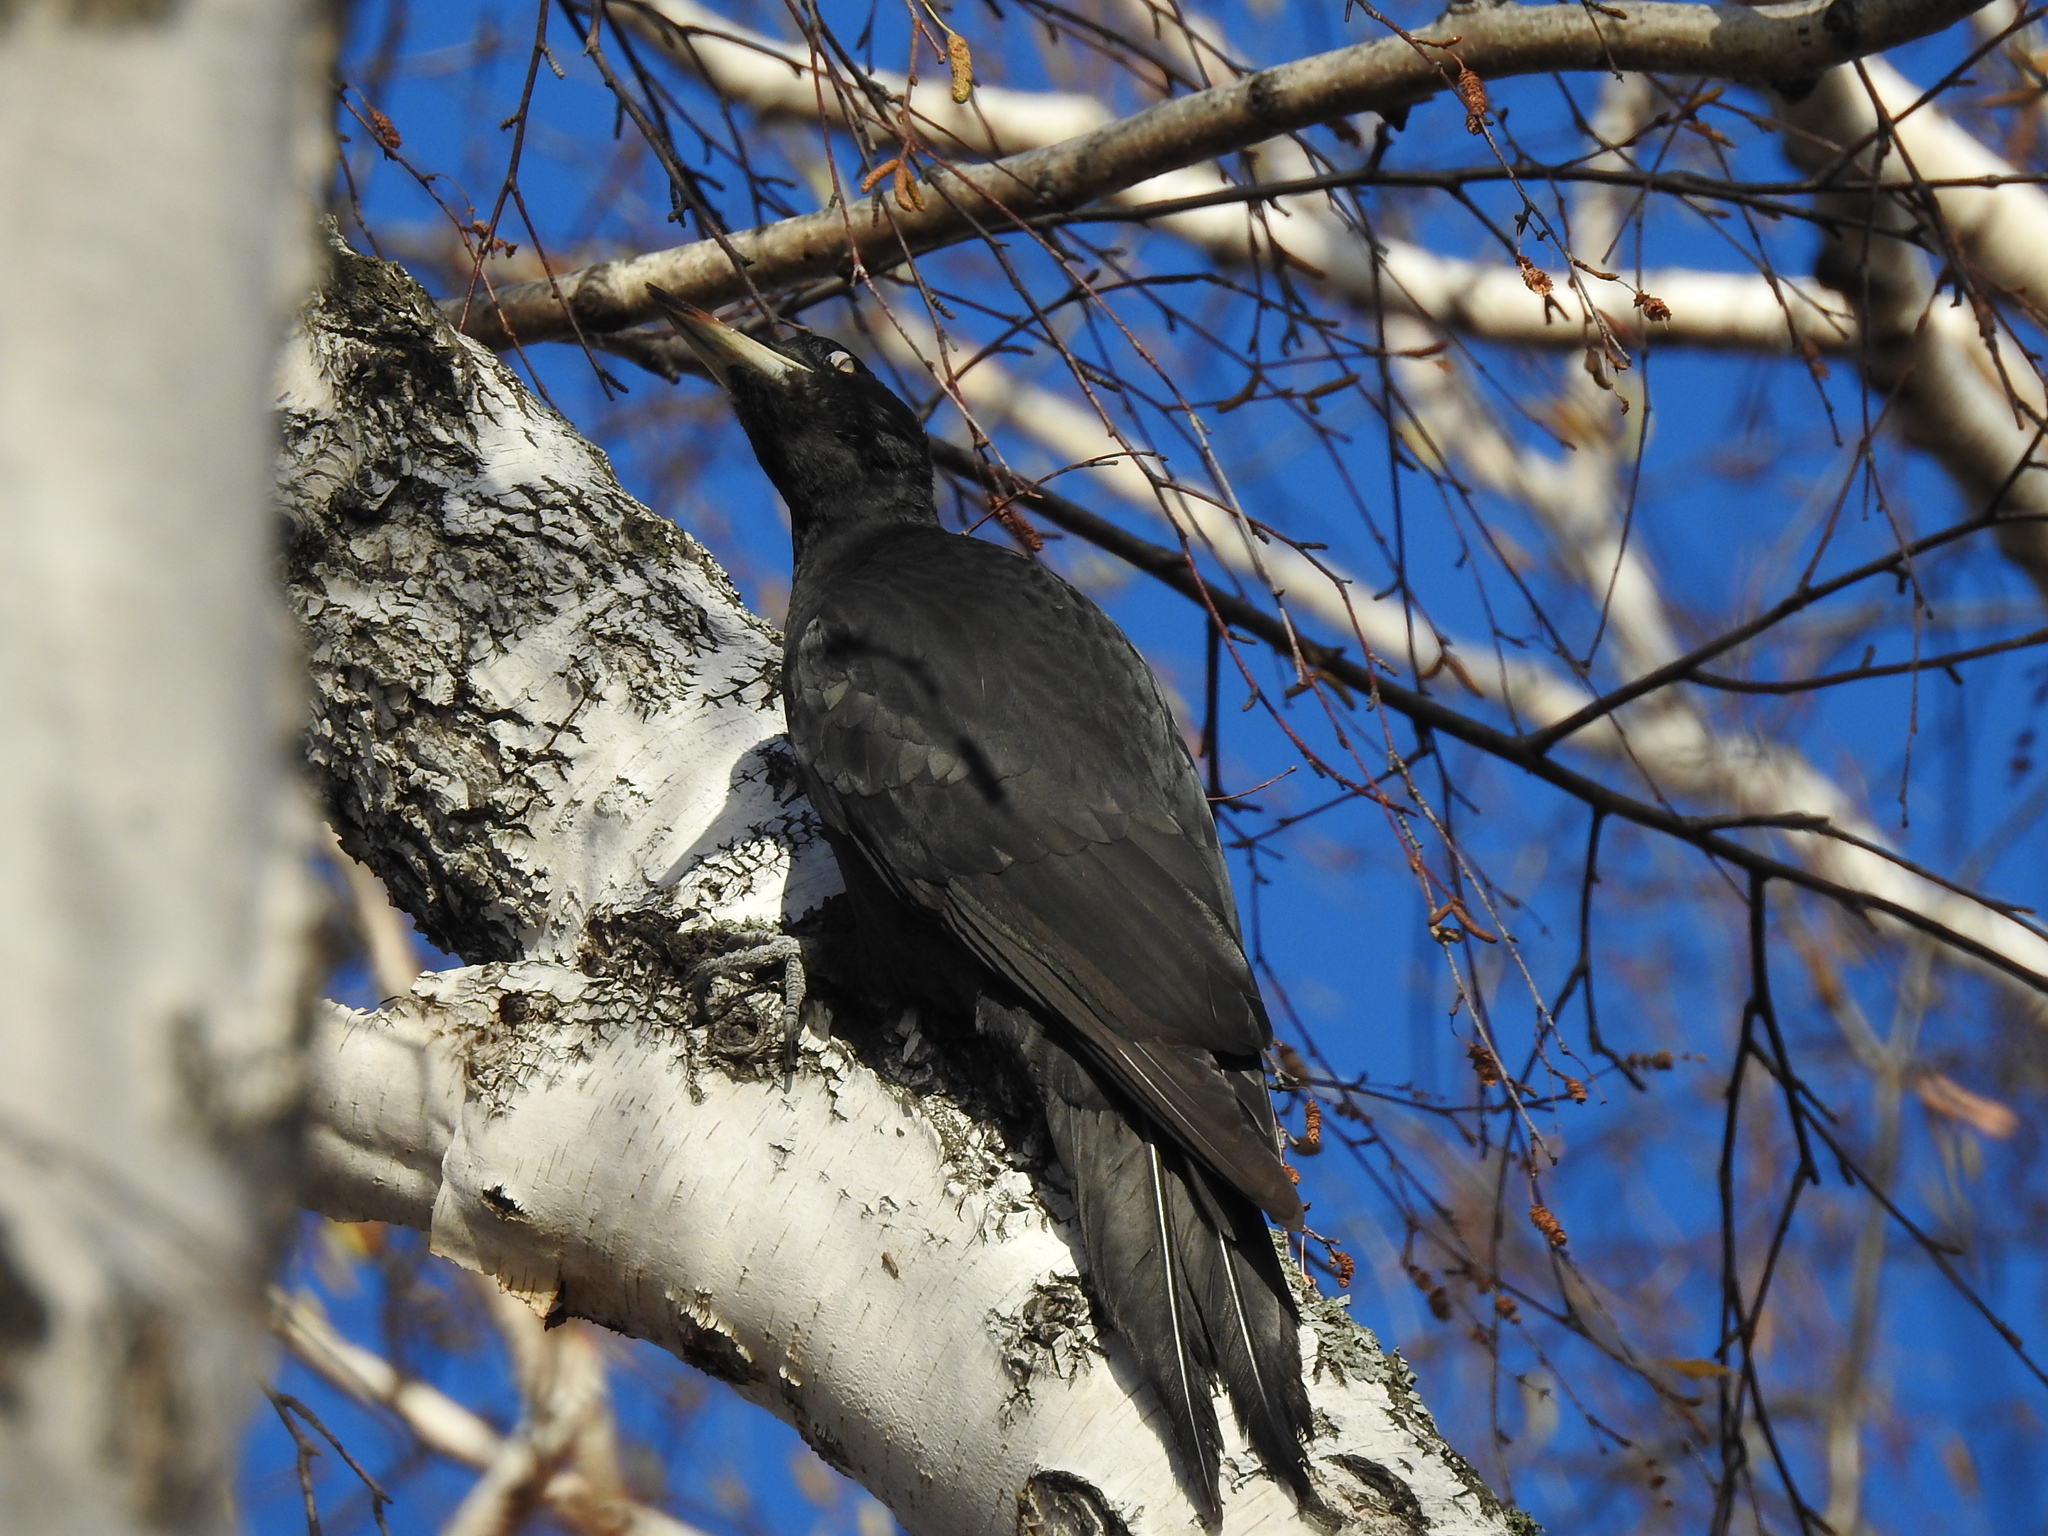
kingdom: Animalia
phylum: Chordata
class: Aves
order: Piciformes
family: Picidae
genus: Dryocopus
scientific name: Dryocopus martius
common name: Black woodpecker
